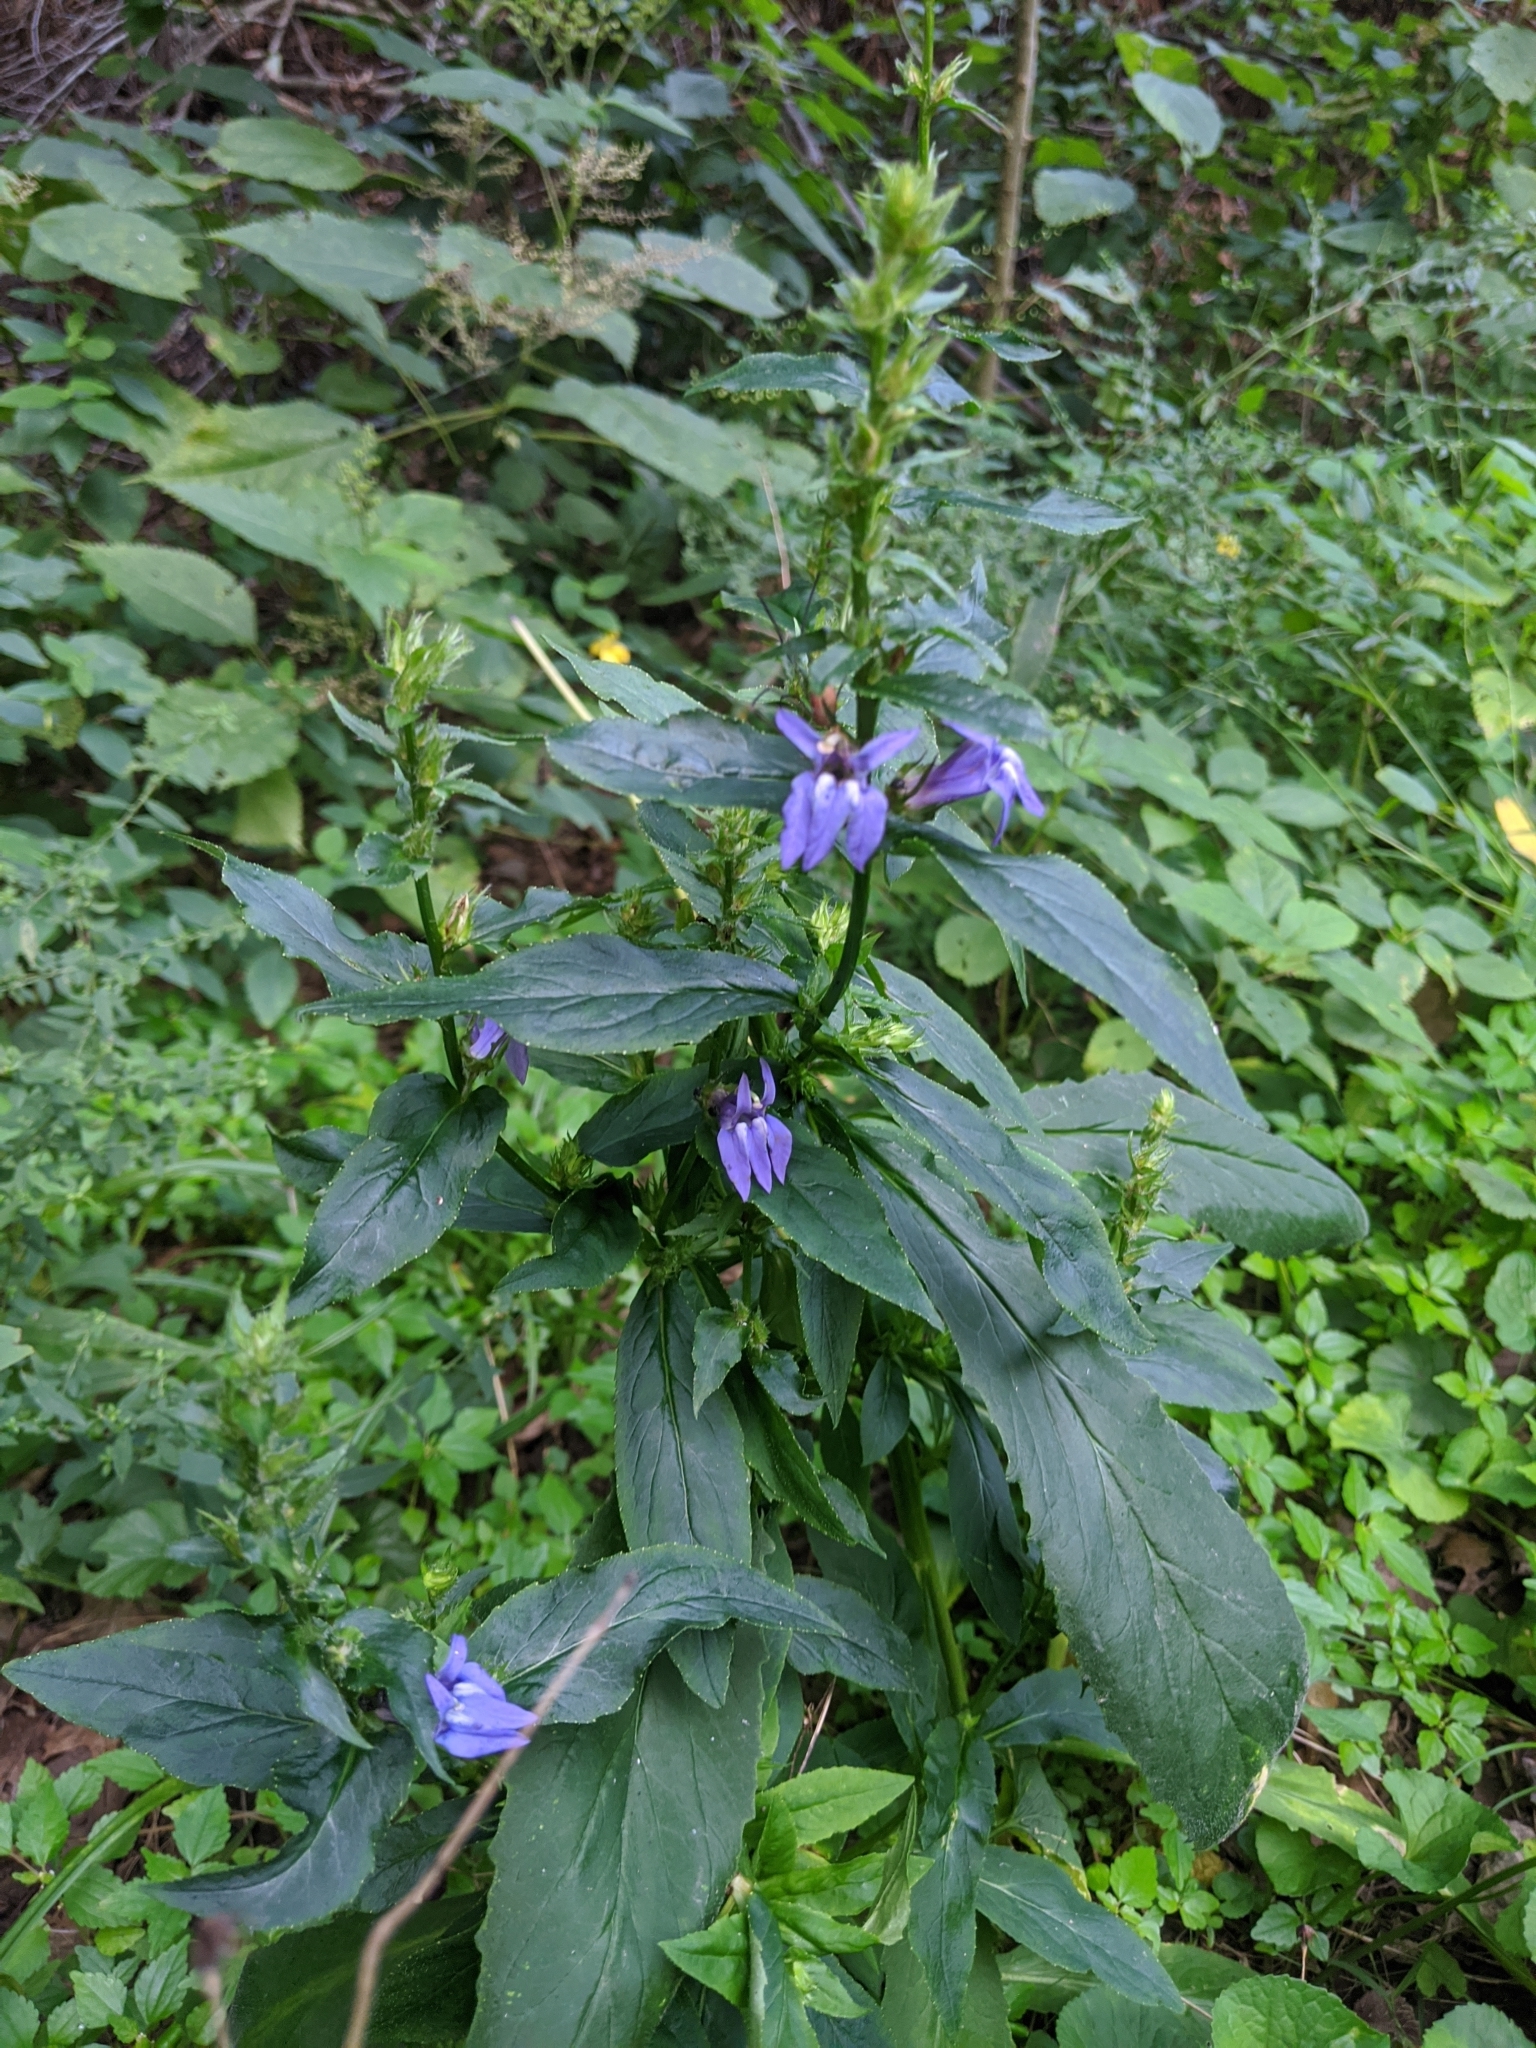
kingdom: Plantae
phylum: Tracheophyta
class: Magnoliopsida
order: Asterales
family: Campanulaceae
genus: Lobelia
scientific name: Lobelia siphilitica
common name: Great lobelia
